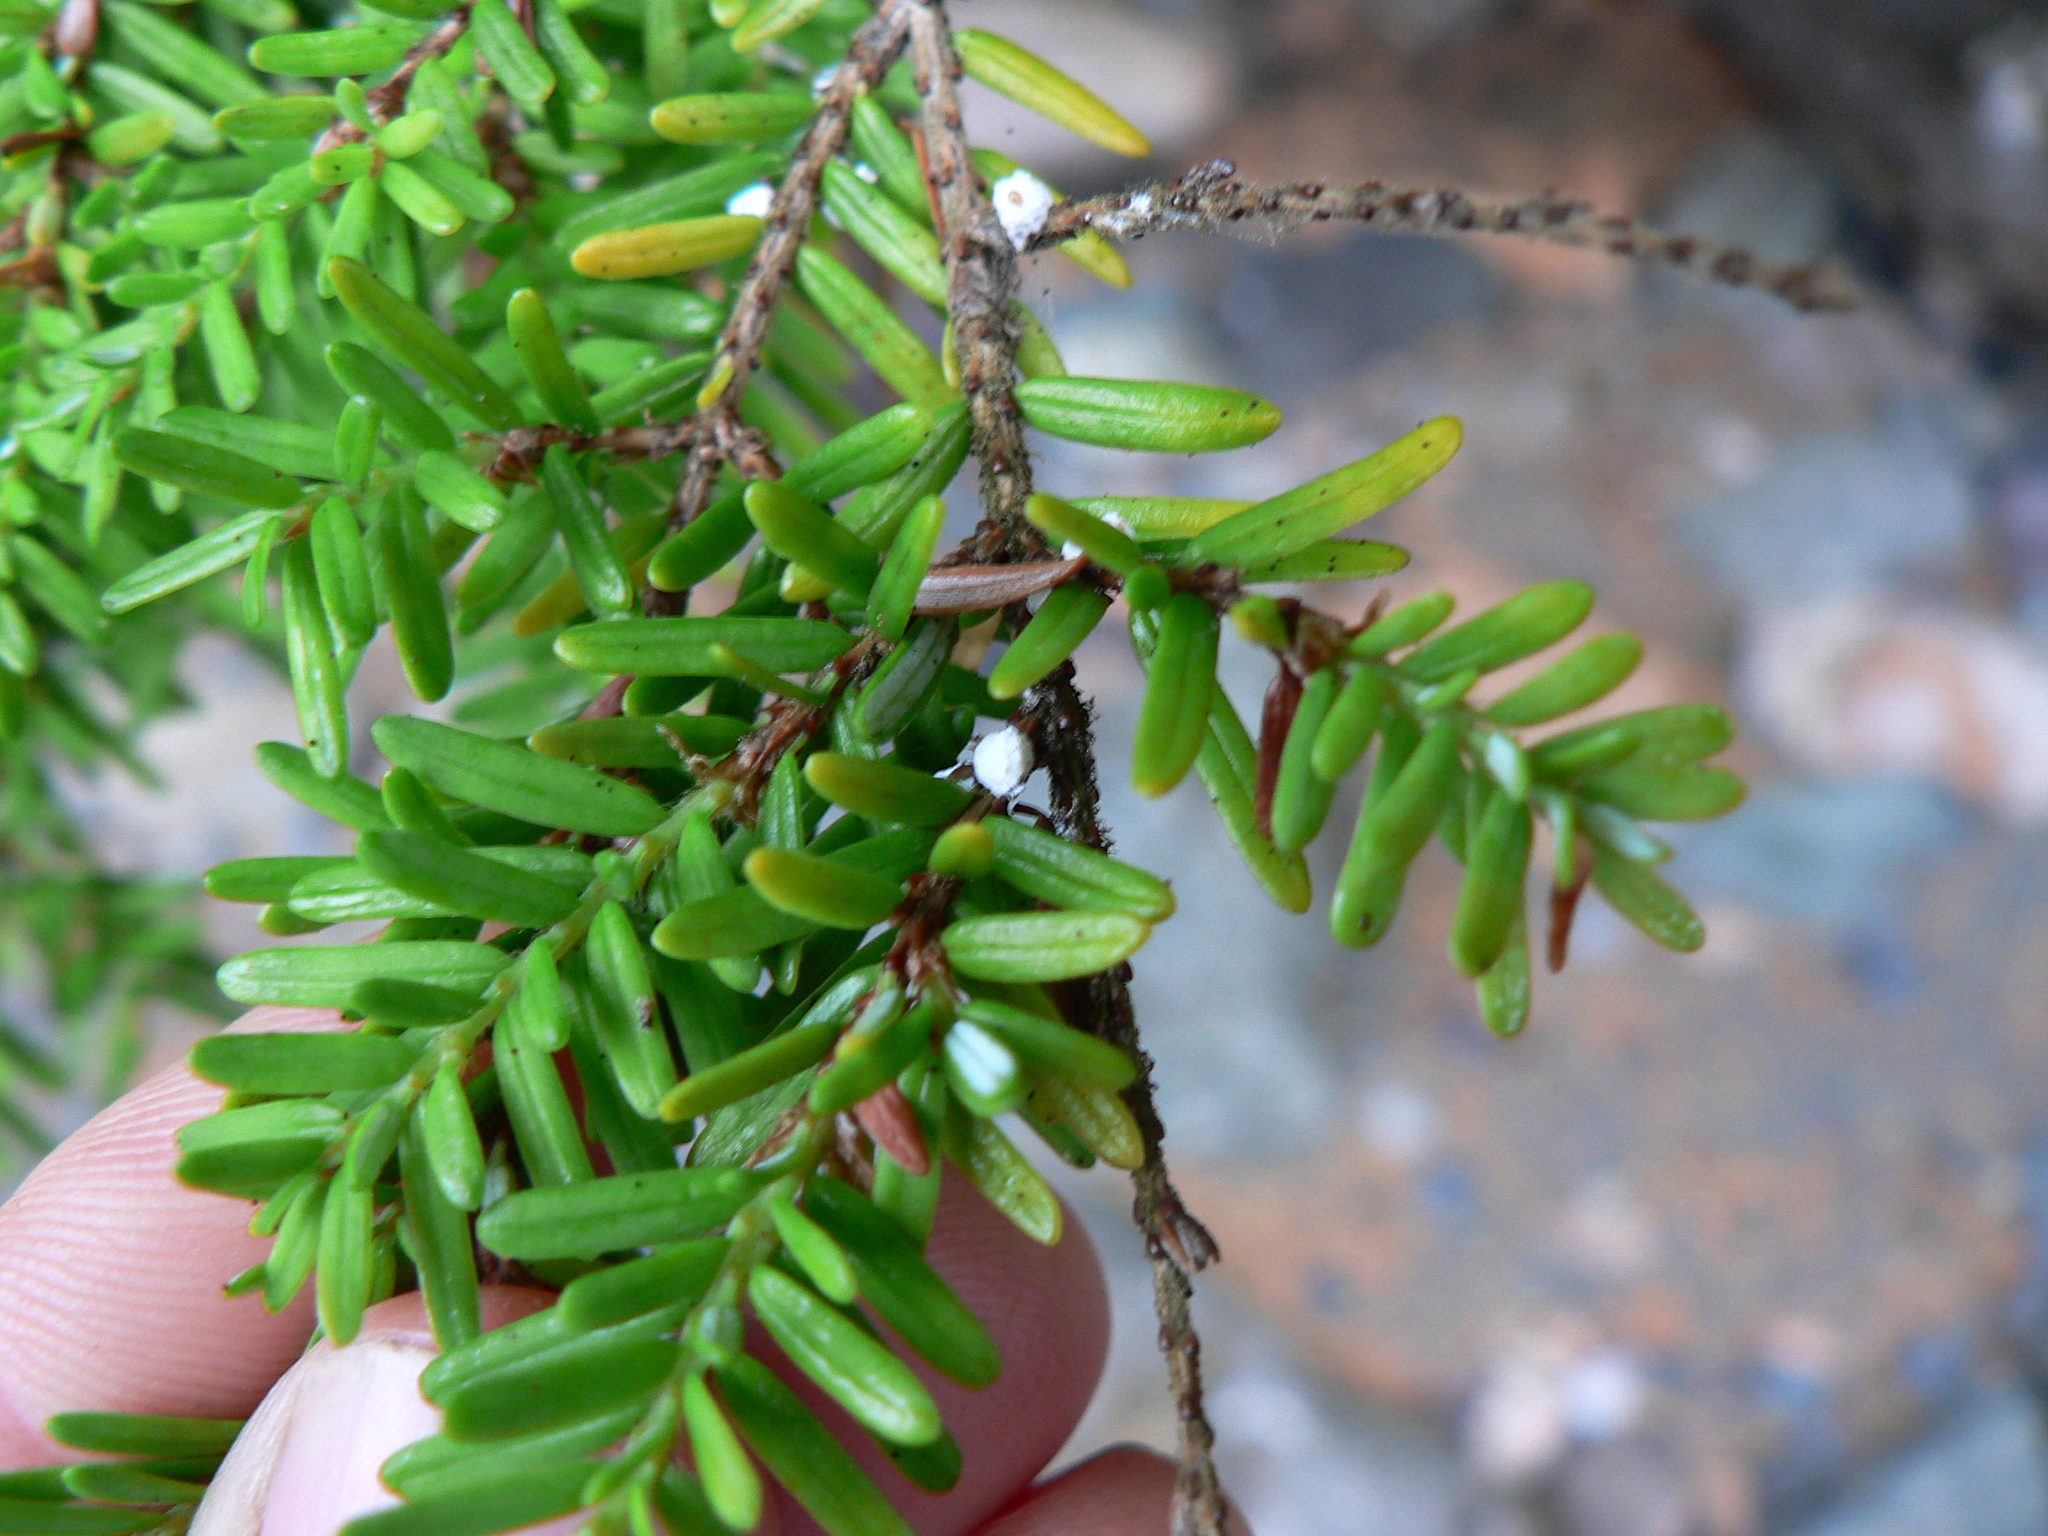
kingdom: Animalia
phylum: Arthropoda
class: Insecta
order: Hemiptera
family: Adelgidae
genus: Adelges
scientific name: Adelges tsugae
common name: Hemlock woolly adelgid
